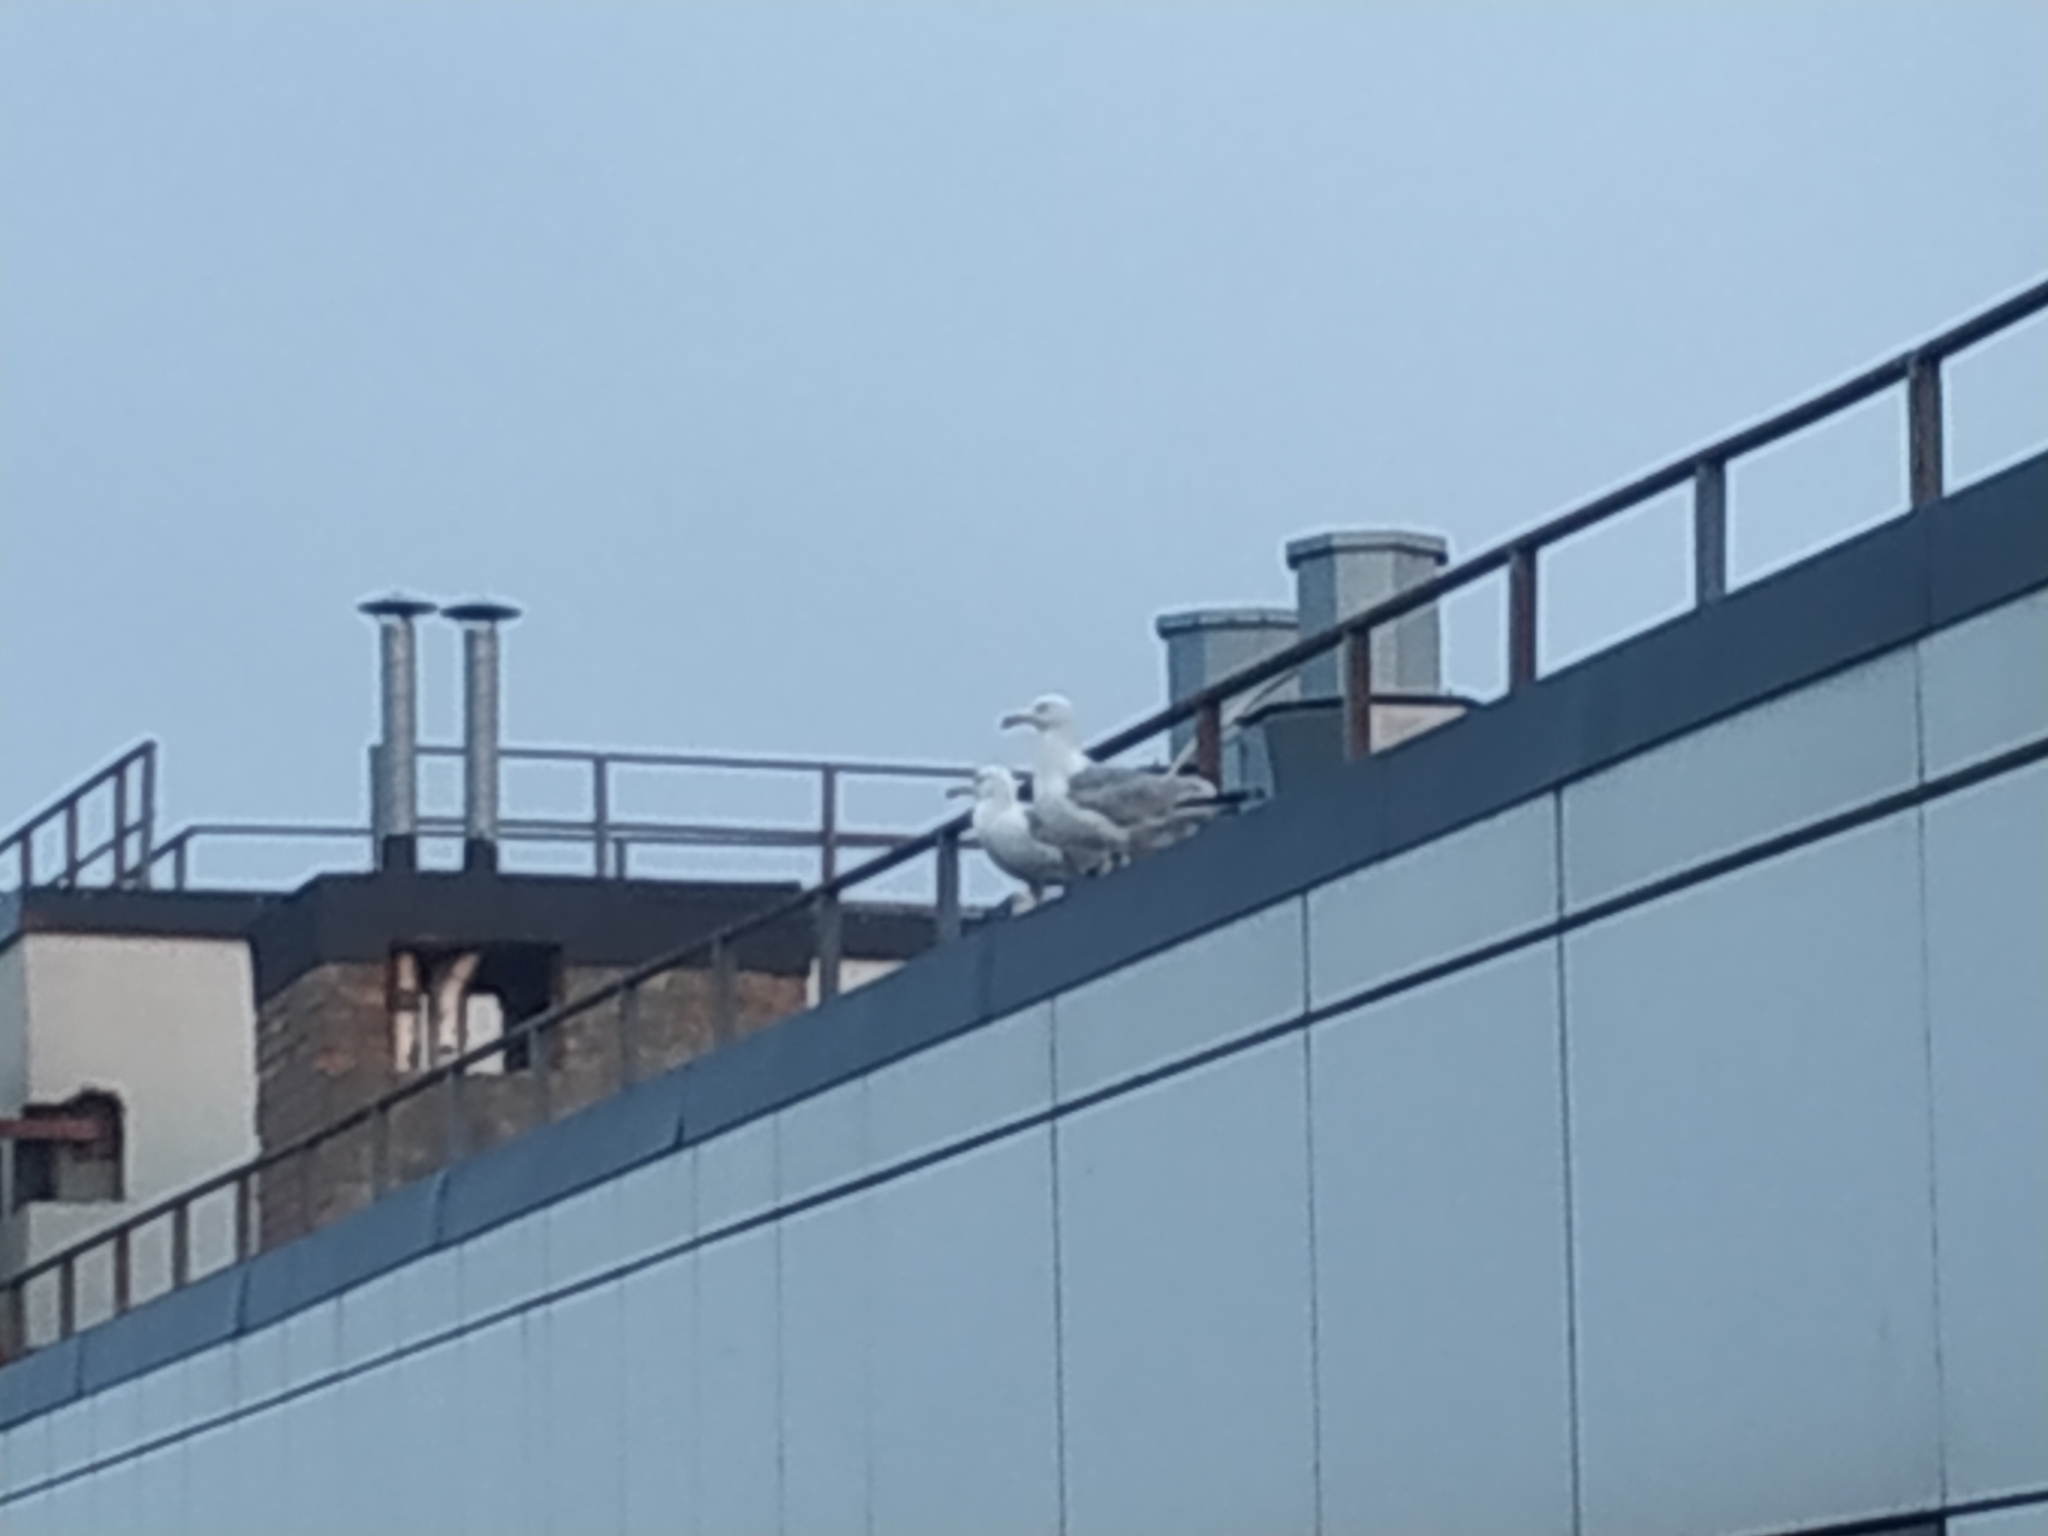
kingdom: Animalia
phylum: Chordata
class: Aves
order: Charadriiformes
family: Laridae
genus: Larus
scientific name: Larus argentatus
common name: Herring gull
